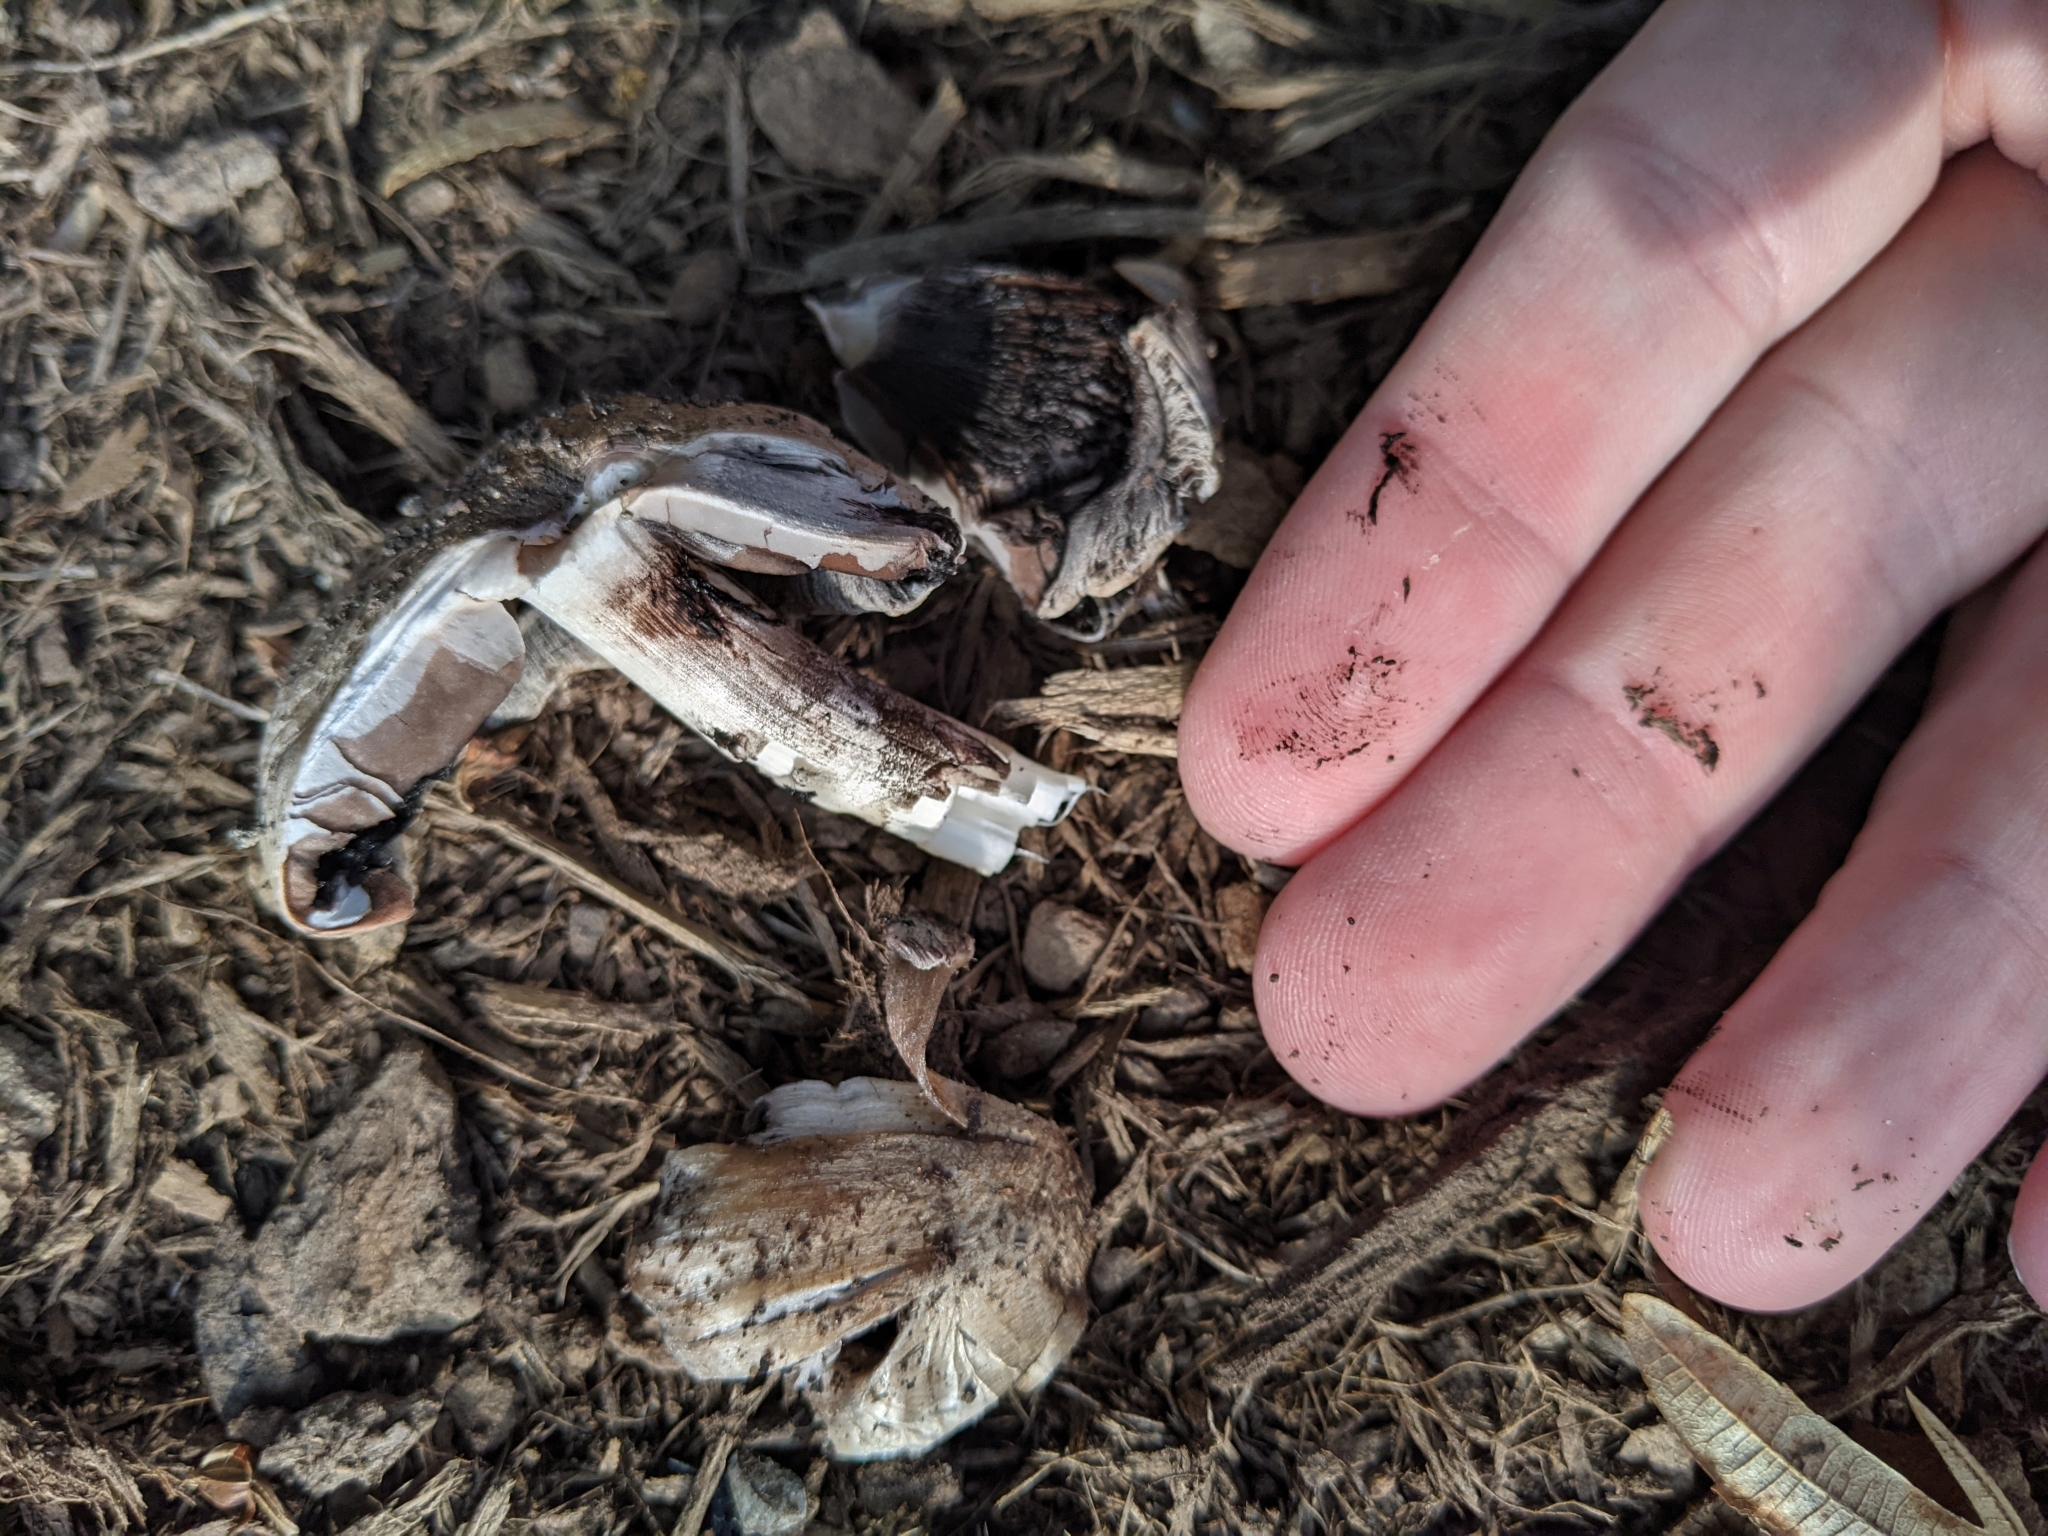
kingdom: Fungi
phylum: Basidiomycota
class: Agaricomycetes
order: Agaricales
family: Psathyrellaceae
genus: Coprinopsis
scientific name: Coprinopsis atramentaria
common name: Common ink-cap
